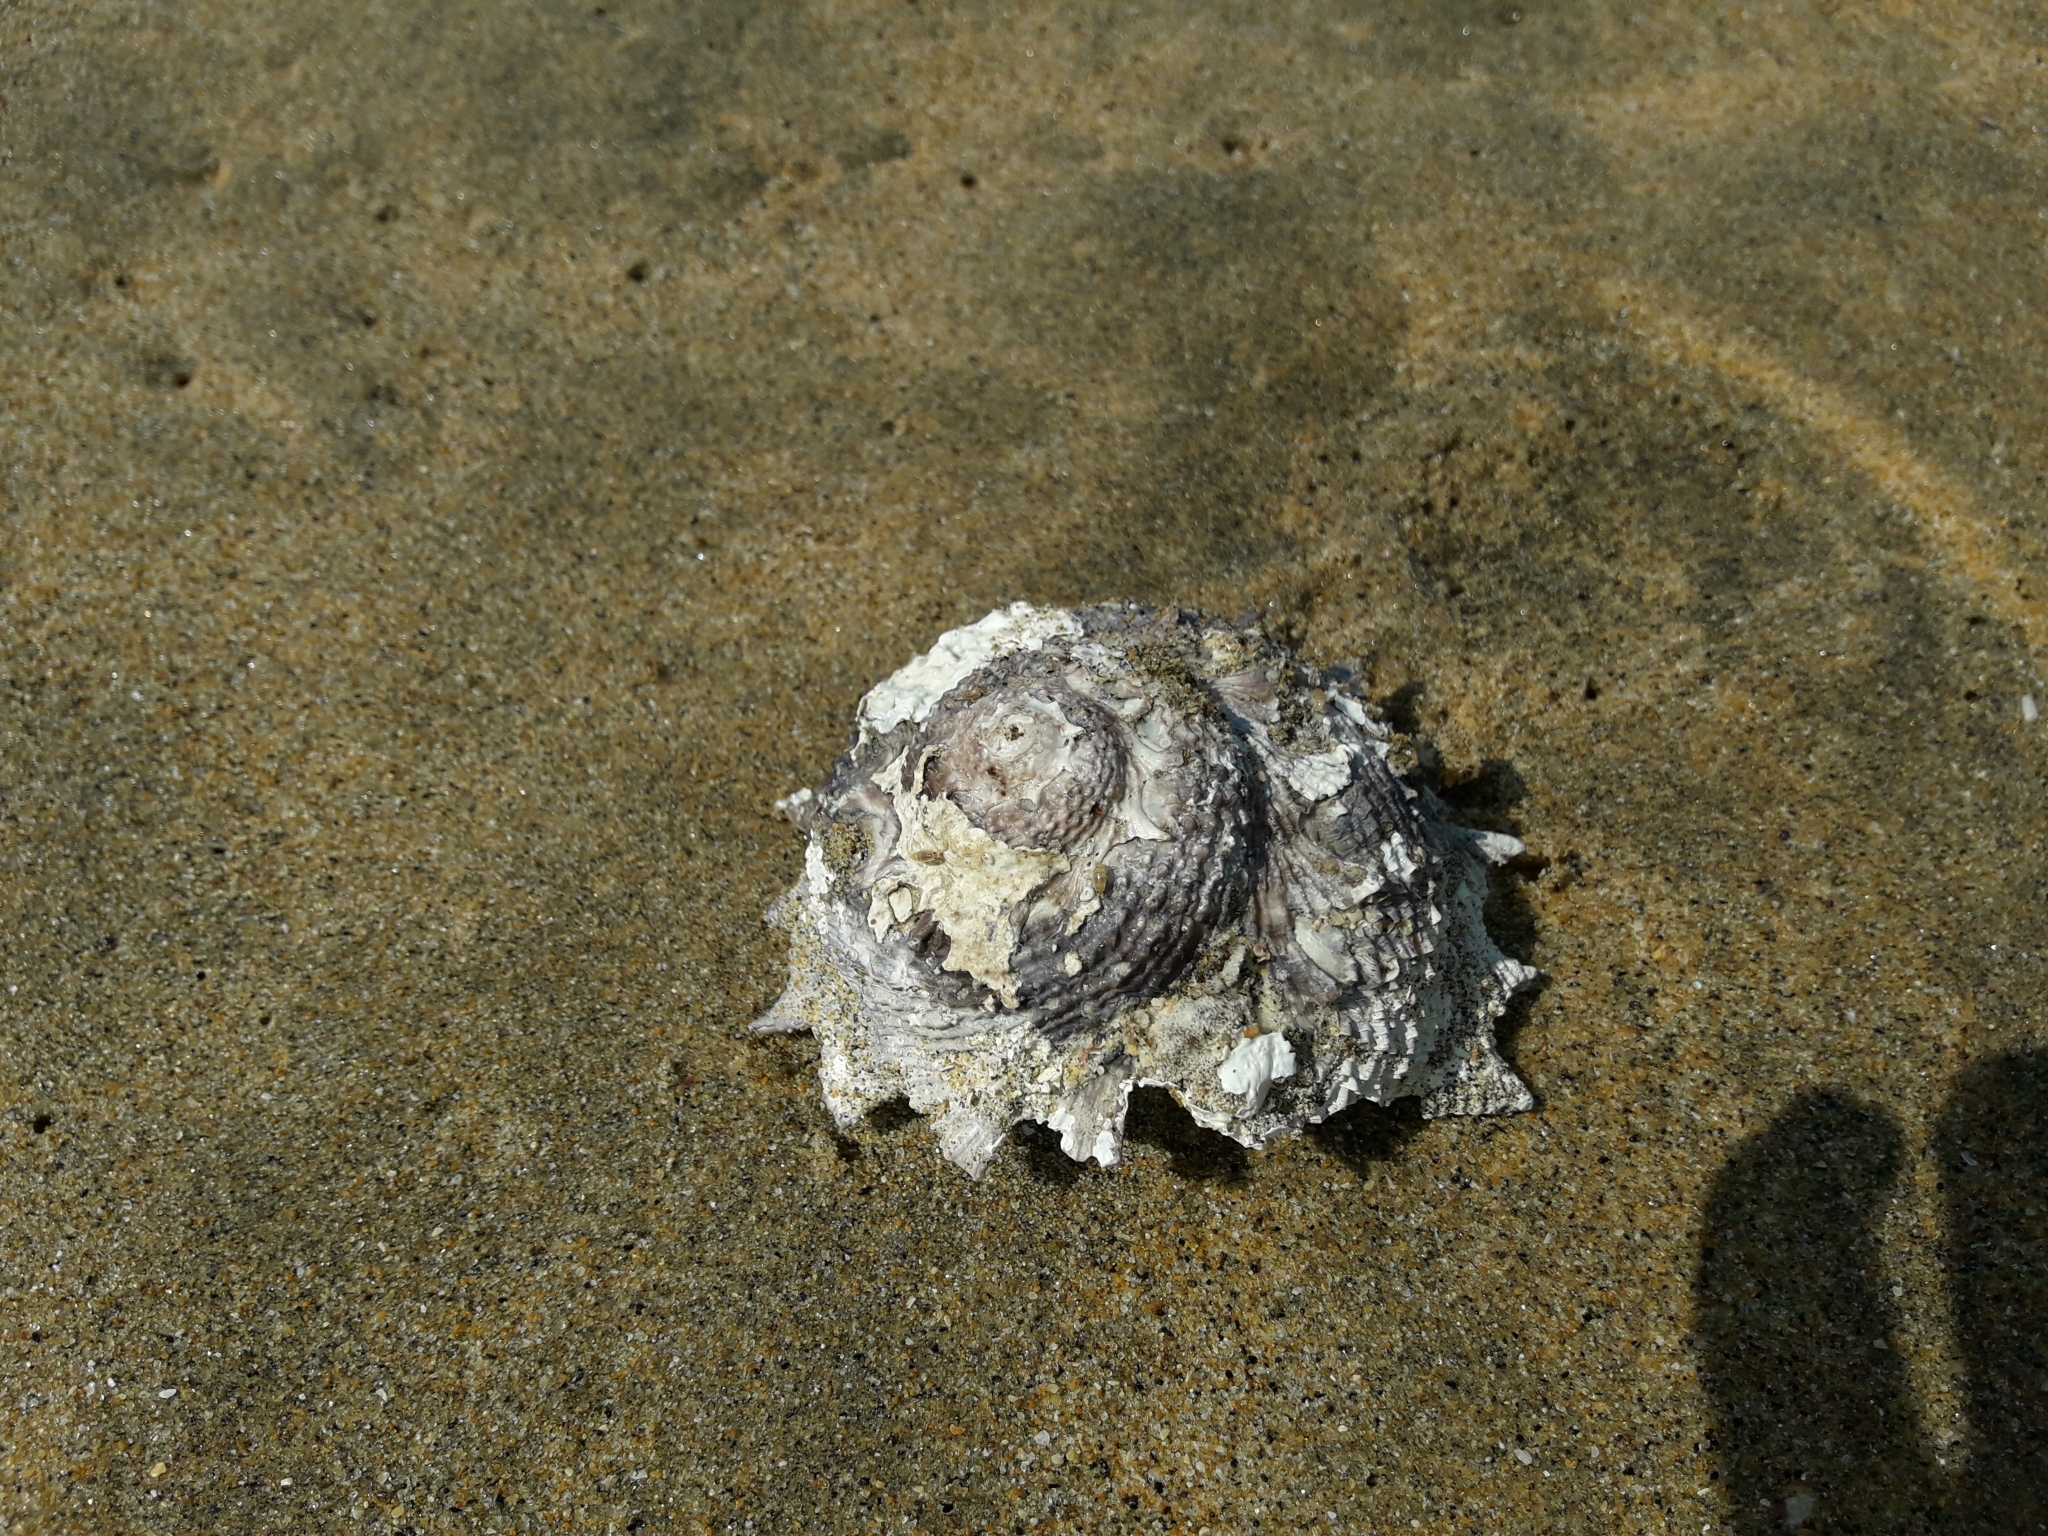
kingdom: Animalia
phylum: Mollusca
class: Gastropoda
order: Trochida
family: Turbinidae
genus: Astraea
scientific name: Astraea heliotropium
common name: Sun shell
